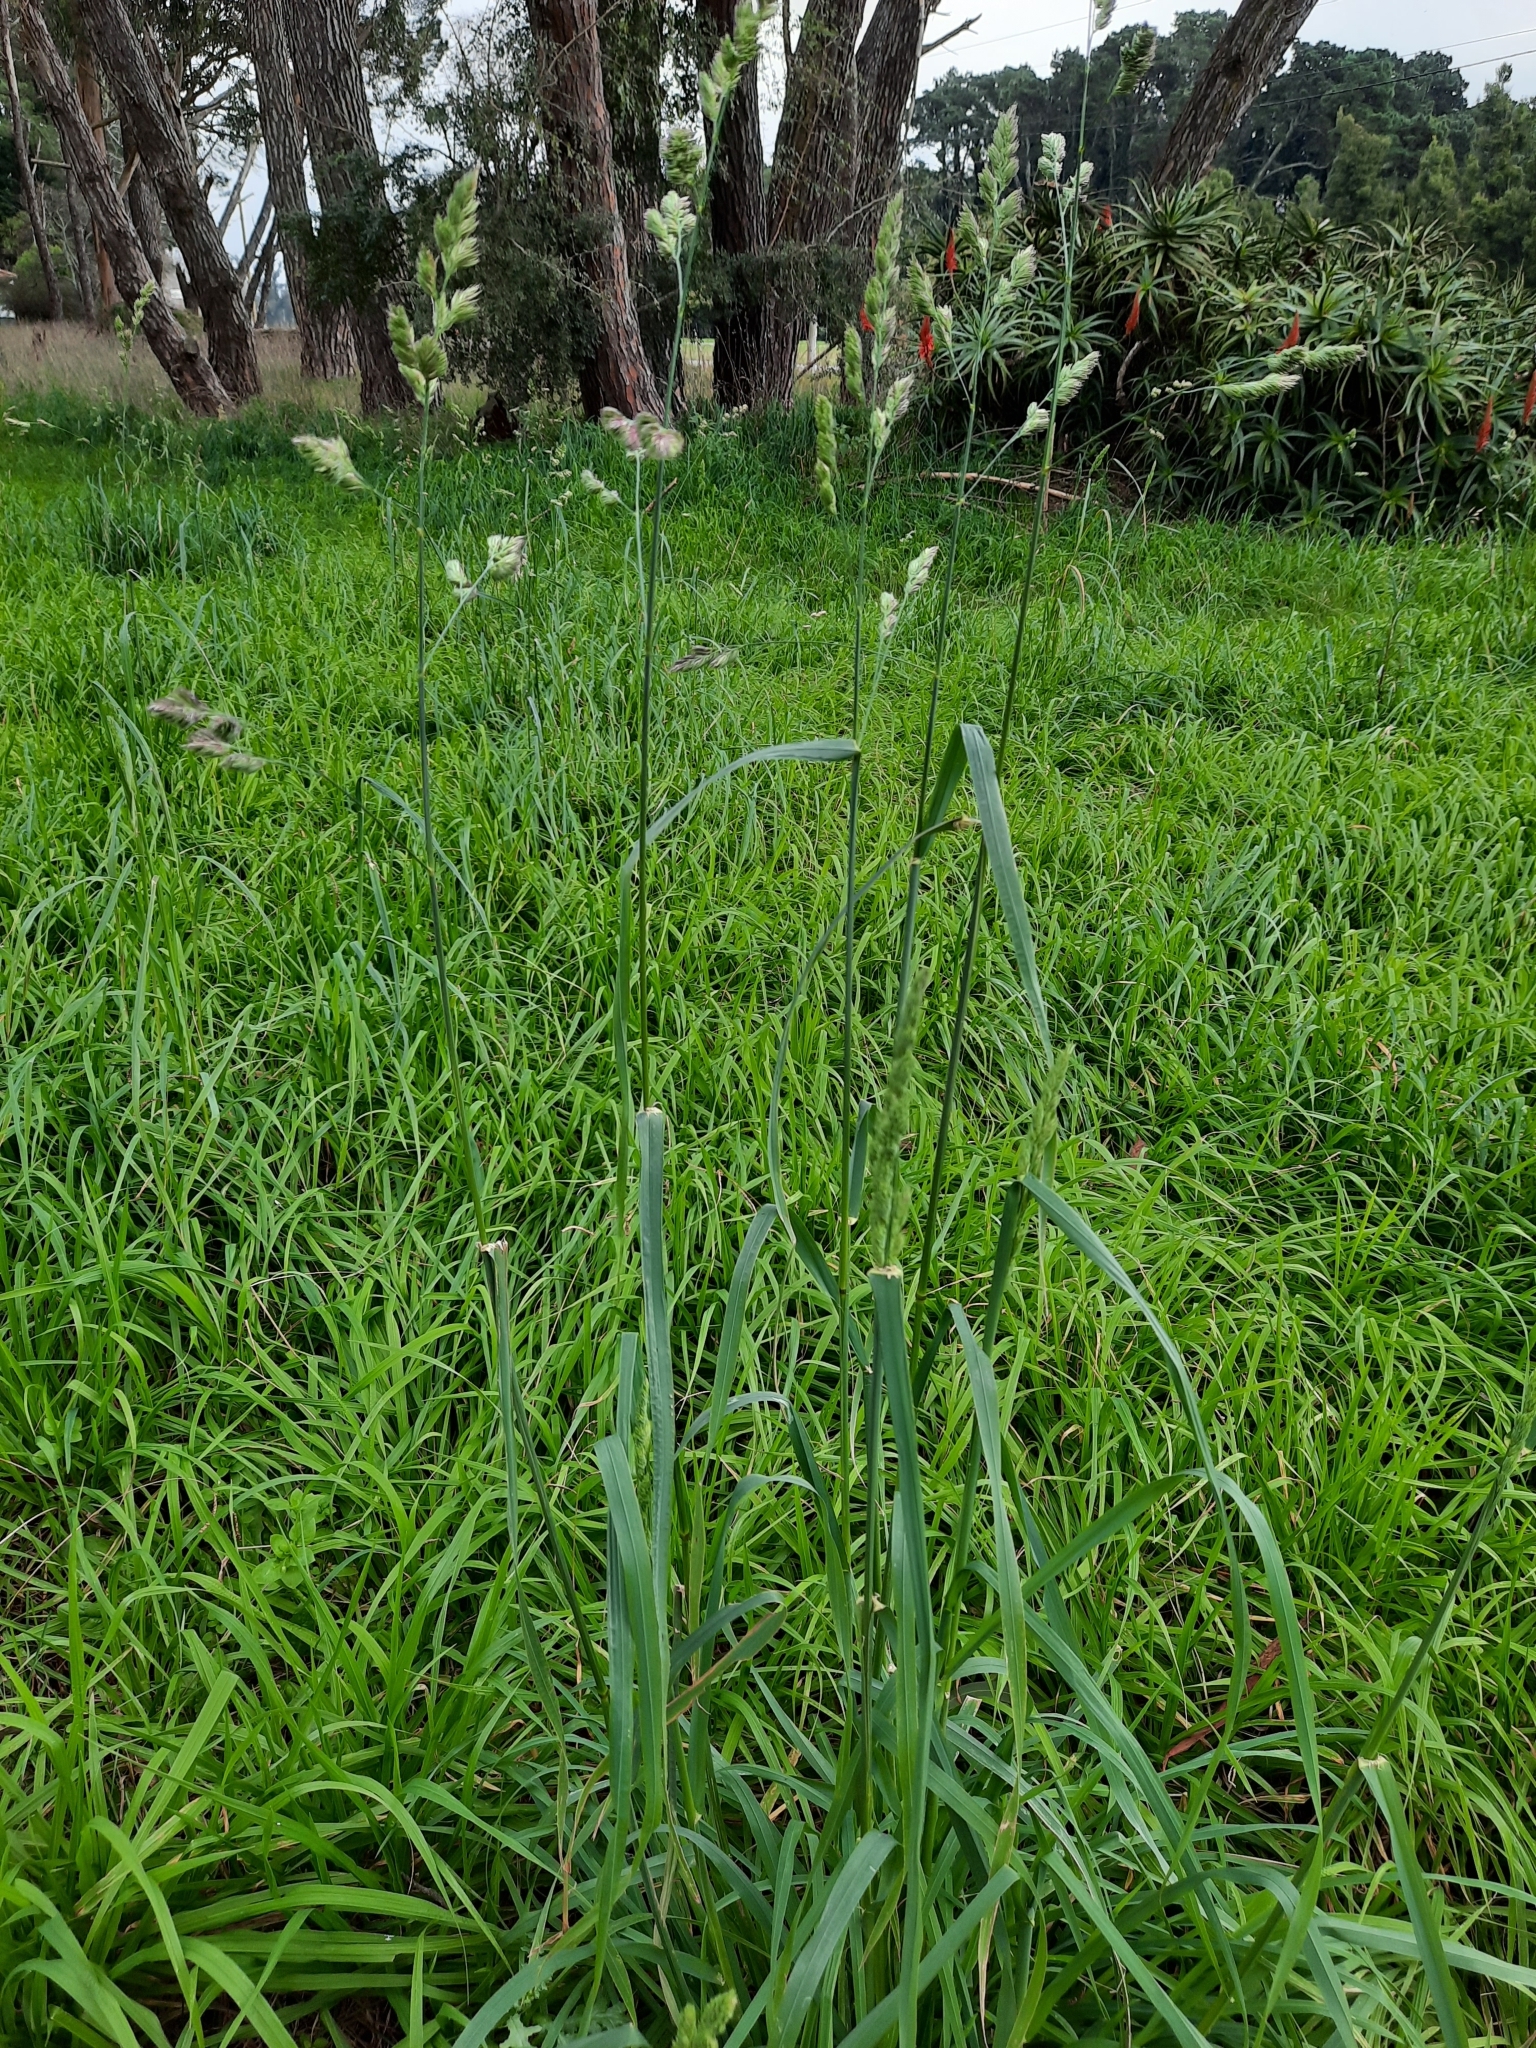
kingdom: Plantae
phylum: Tracheophyta
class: Liliopsida
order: Poales
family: Poaceae
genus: Dactylis
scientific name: Dactylis glomerata
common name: Orchardgrass
